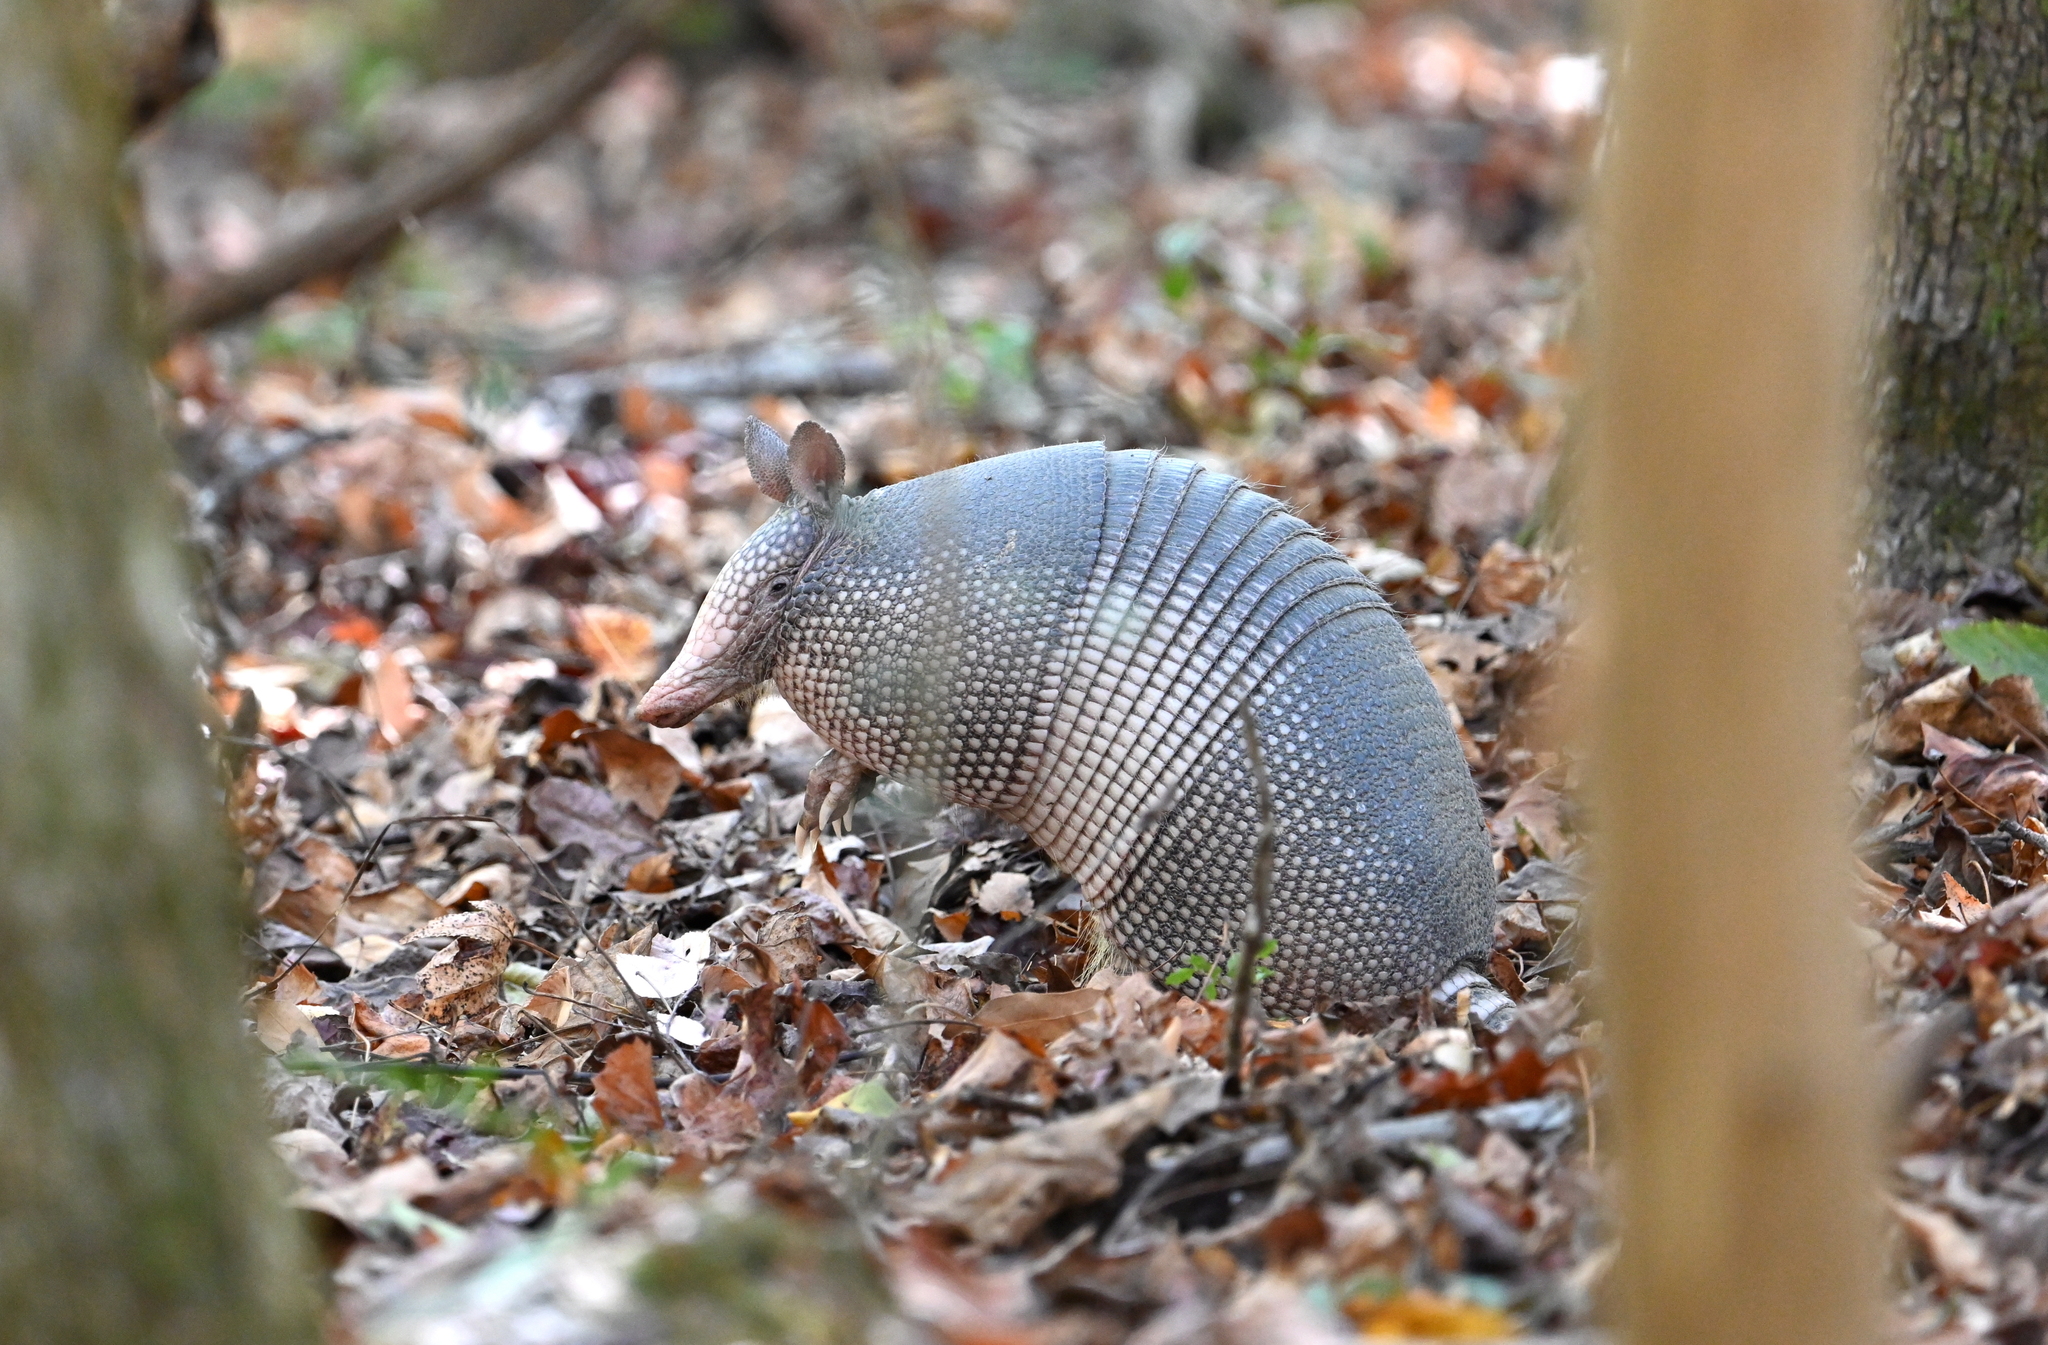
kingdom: Animalia
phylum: Chordata
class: Mammalia
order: Cingulata
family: Dasypodidae
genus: Dasypus
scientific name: Dasypus novemcinctus
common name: Nine-banded armadillo
